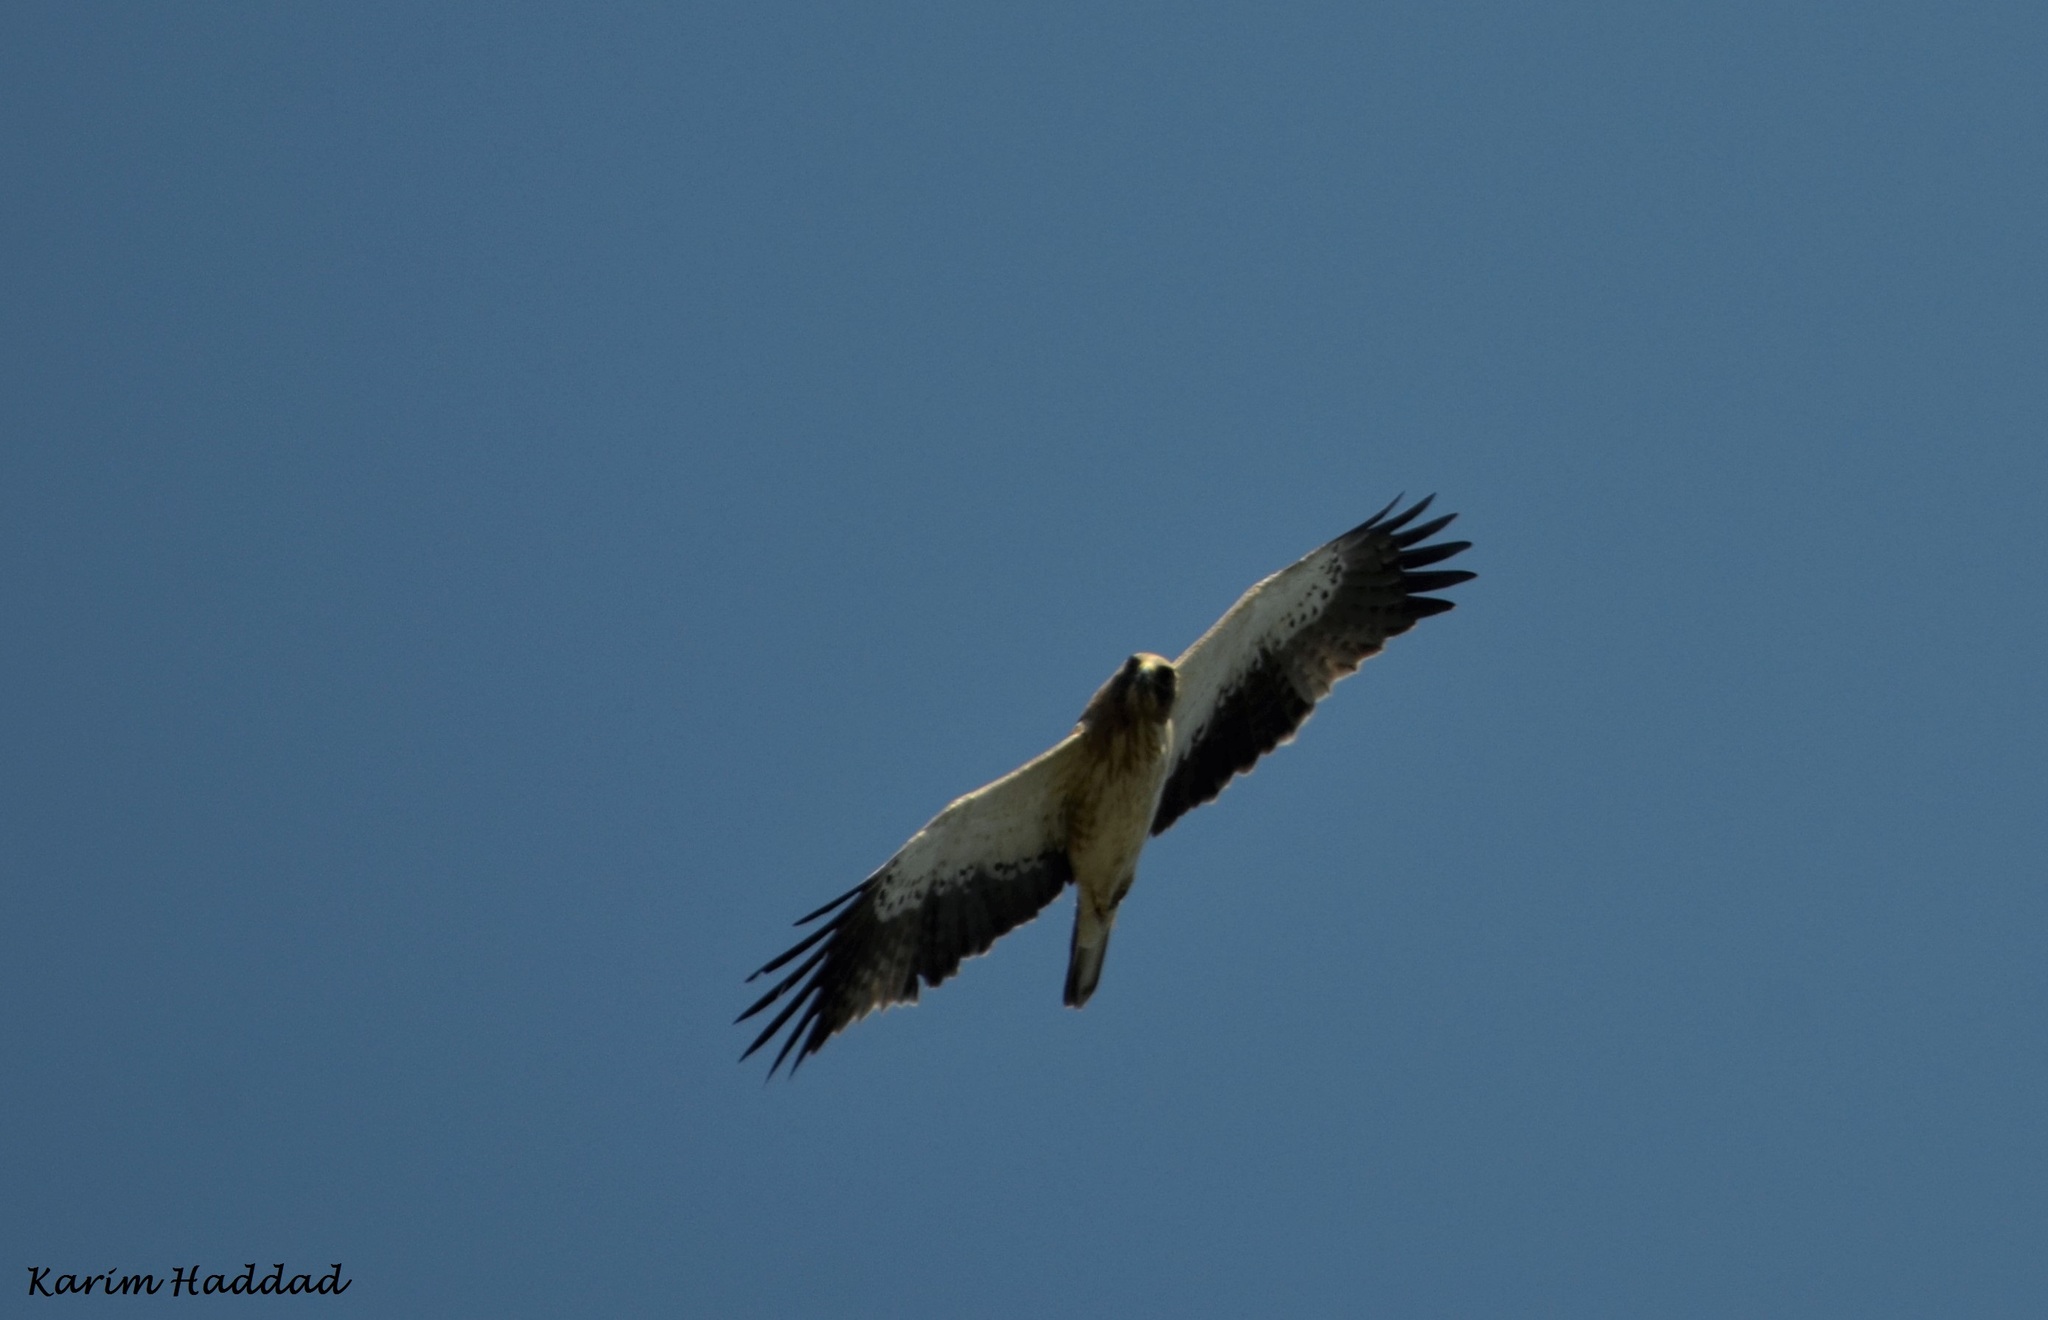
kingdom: Animalia
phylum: Chordata
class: Aves
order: Accipitriformes
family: Accipitridae
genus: Hieraaetus
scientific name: Hieraaetus pennatus
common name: Booted eagle
